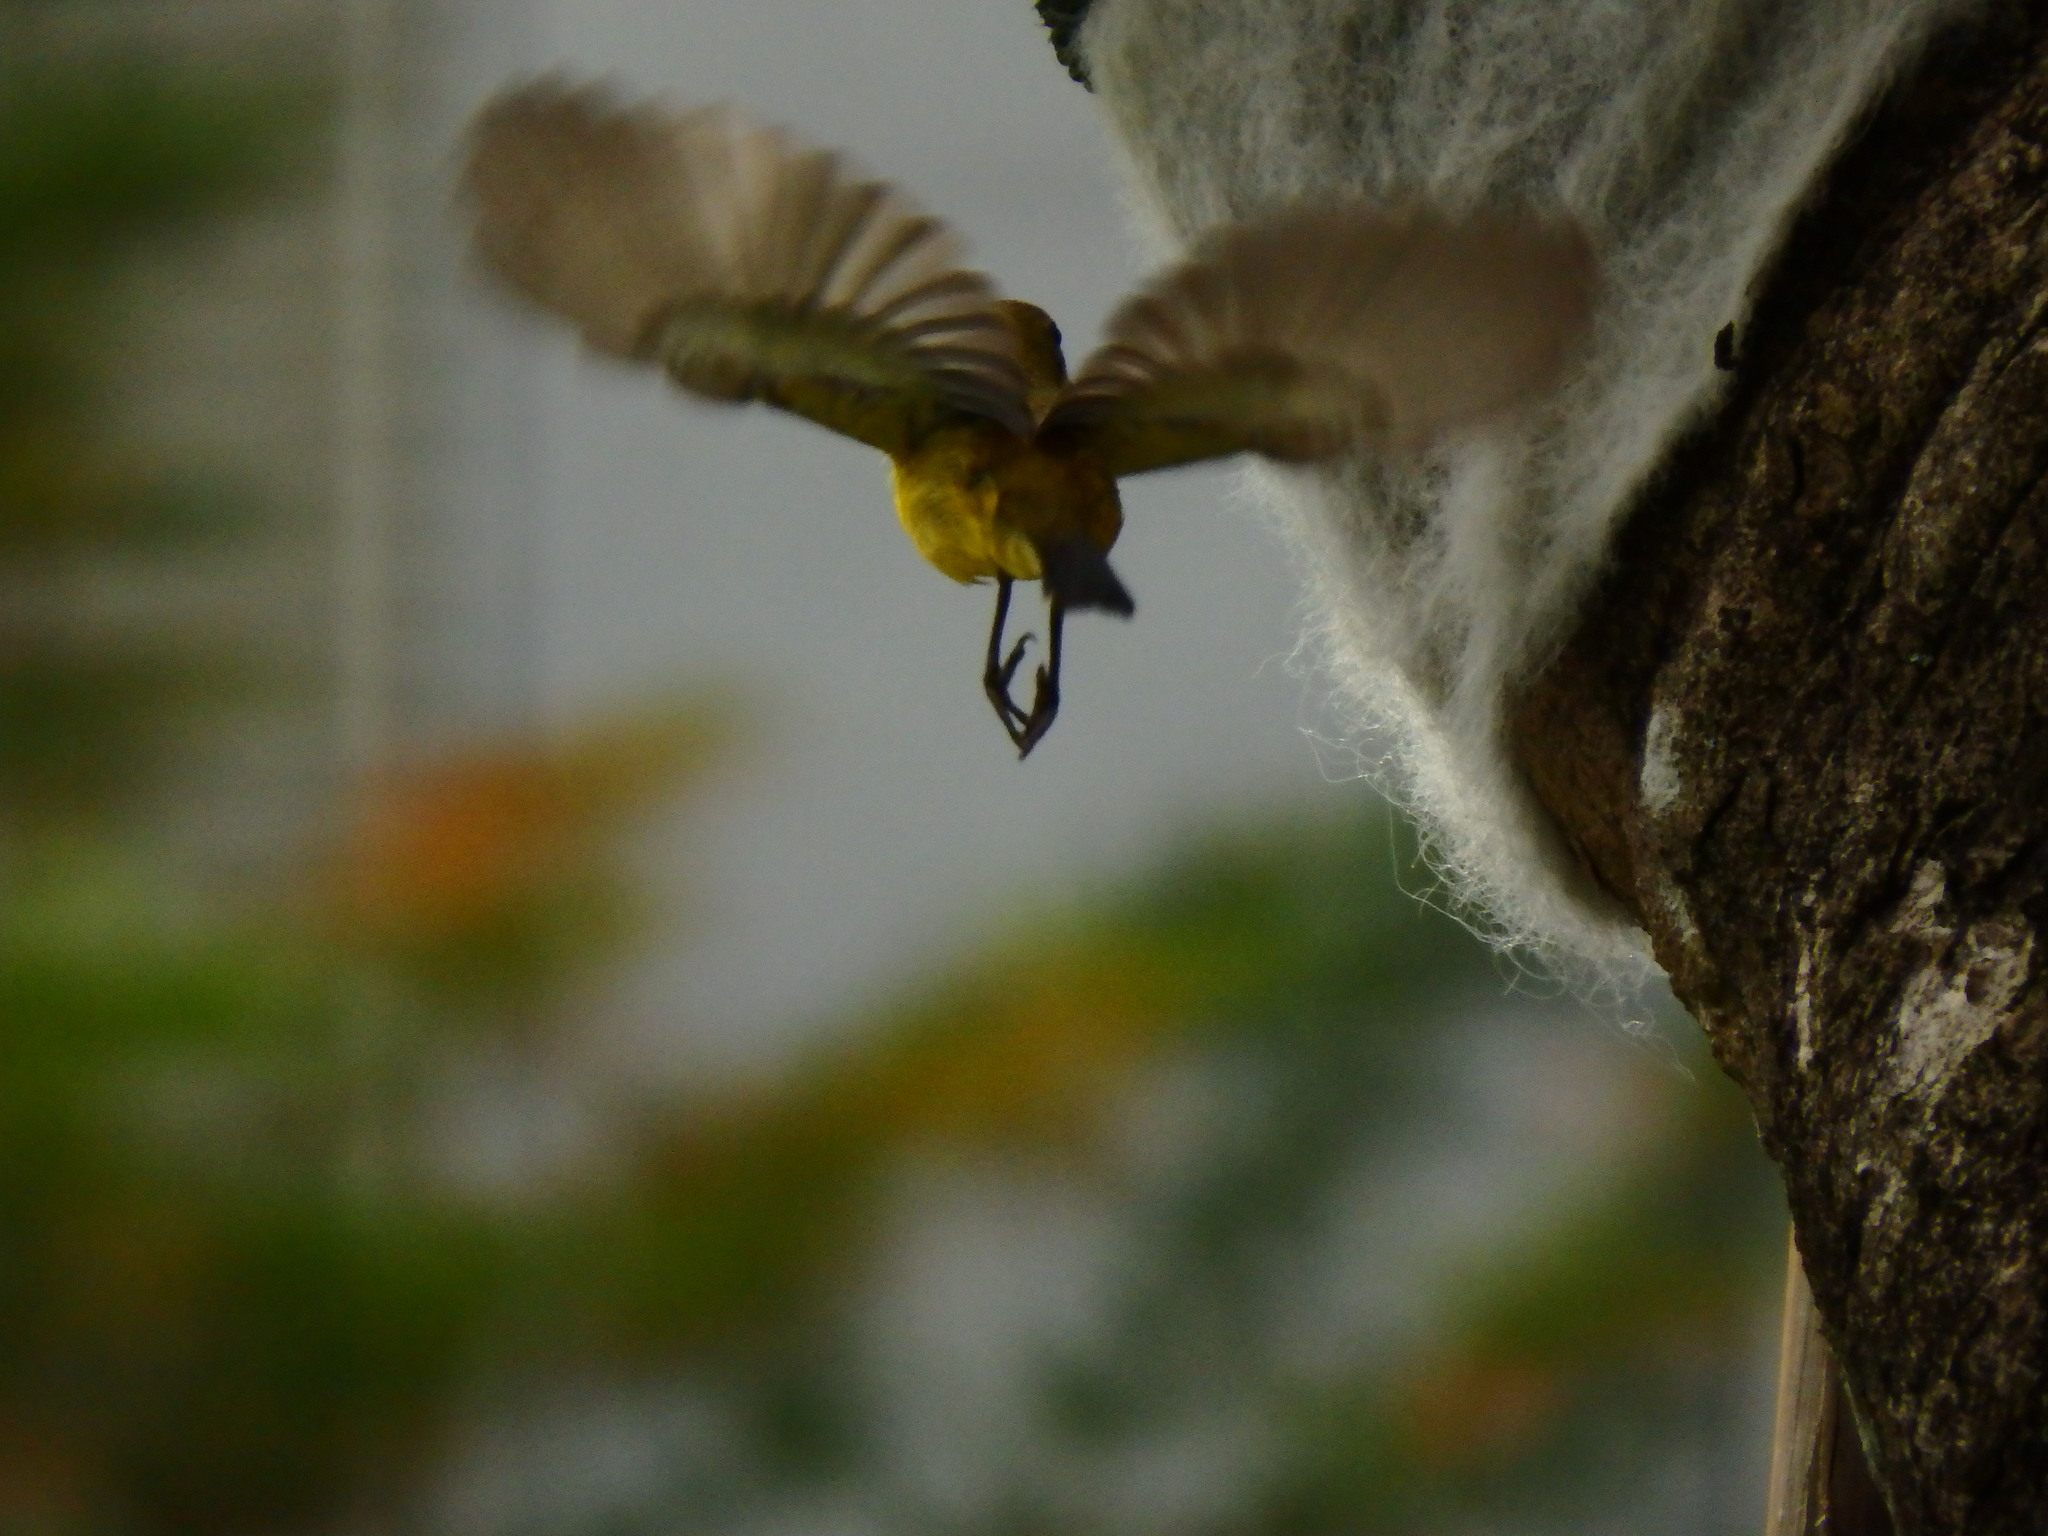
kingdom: Animalia
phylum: Chordata
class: Aves
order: Passeriformes
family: Nectariniidae
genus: Cinnyris
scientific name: Cinnyris
